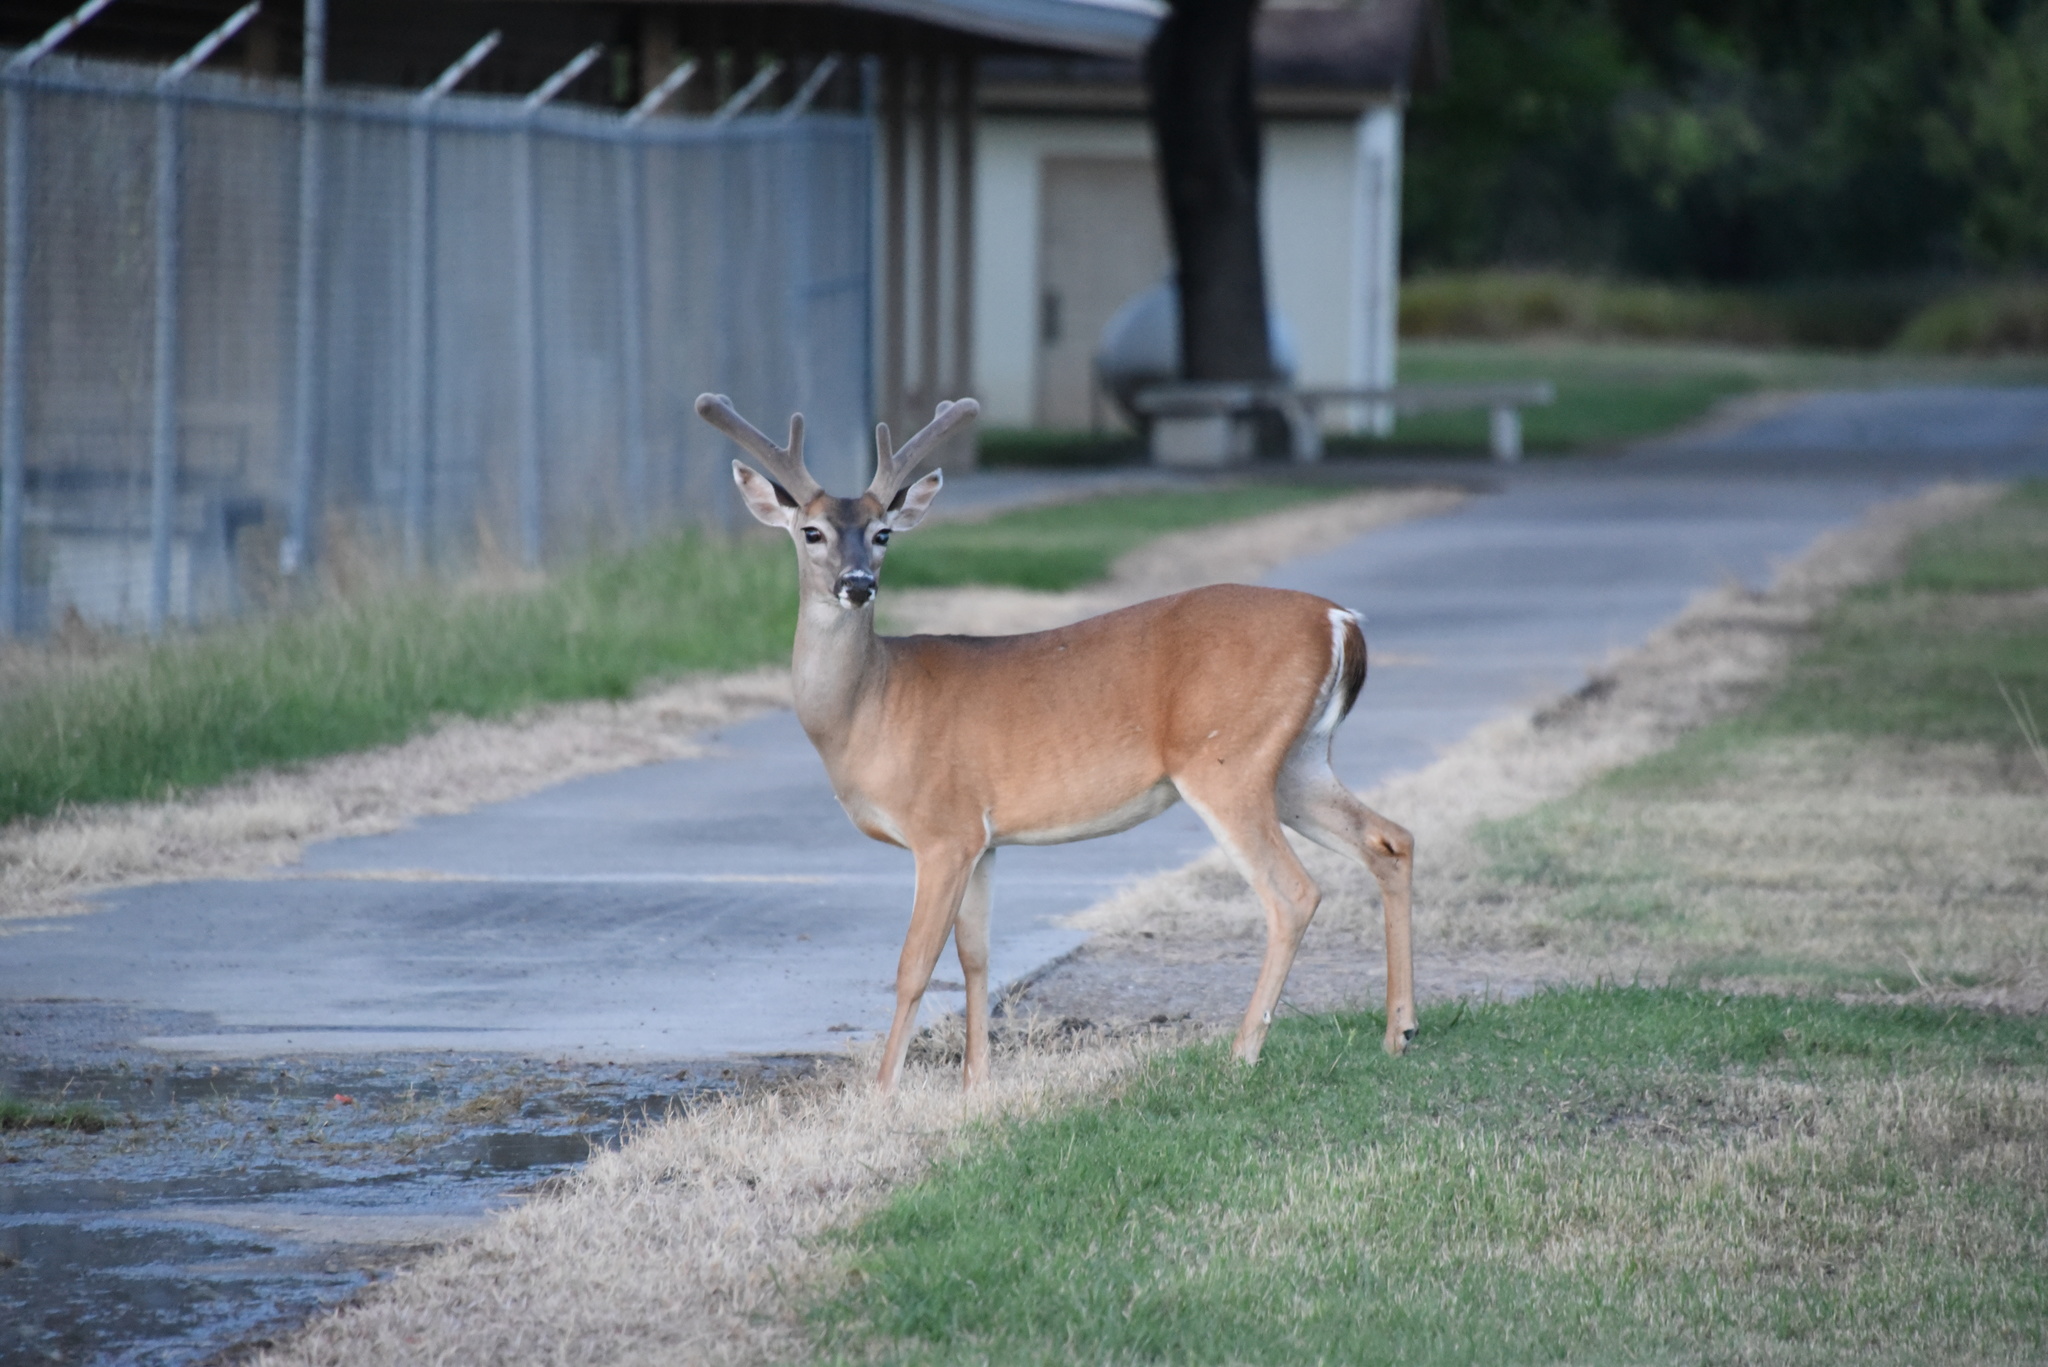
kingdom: Animalia
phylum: Chordata
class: Mammalia
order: Artiodactyla
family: Cervidae
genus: Odocoileus
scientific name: Odocoileus virginianus
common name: White-tailed deer
